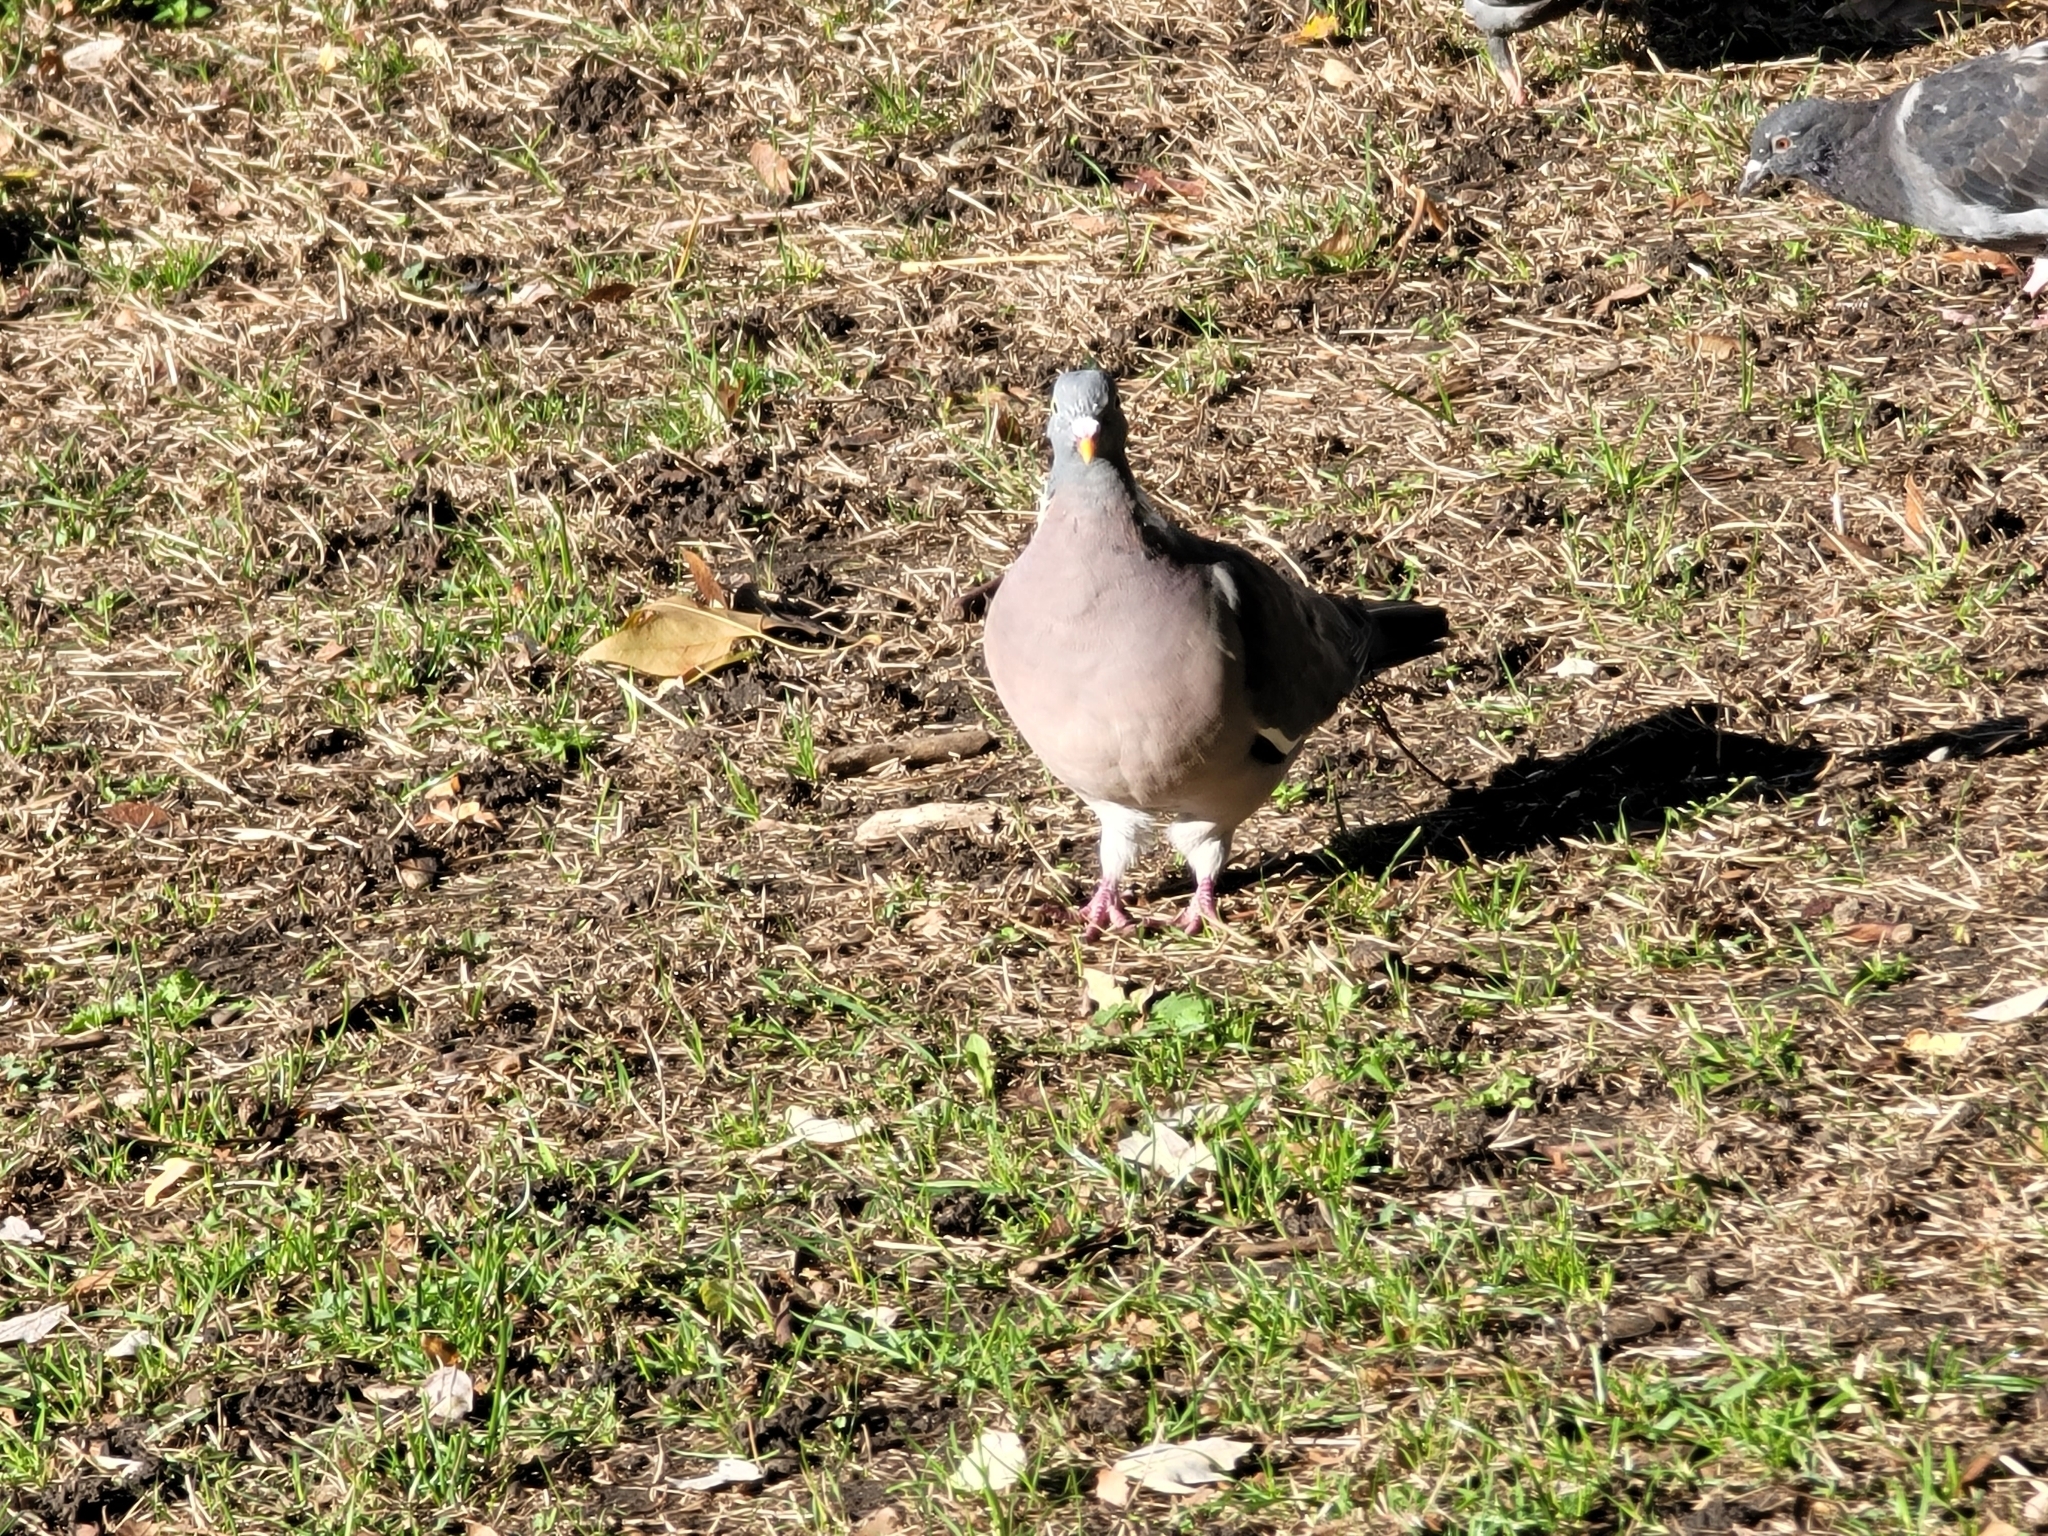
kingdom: Animalia
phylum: Chordata
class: Aves
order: Columbiformes
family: Columbidae
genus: Columba
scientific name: Columba palumbus
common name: Common wood pigeon
